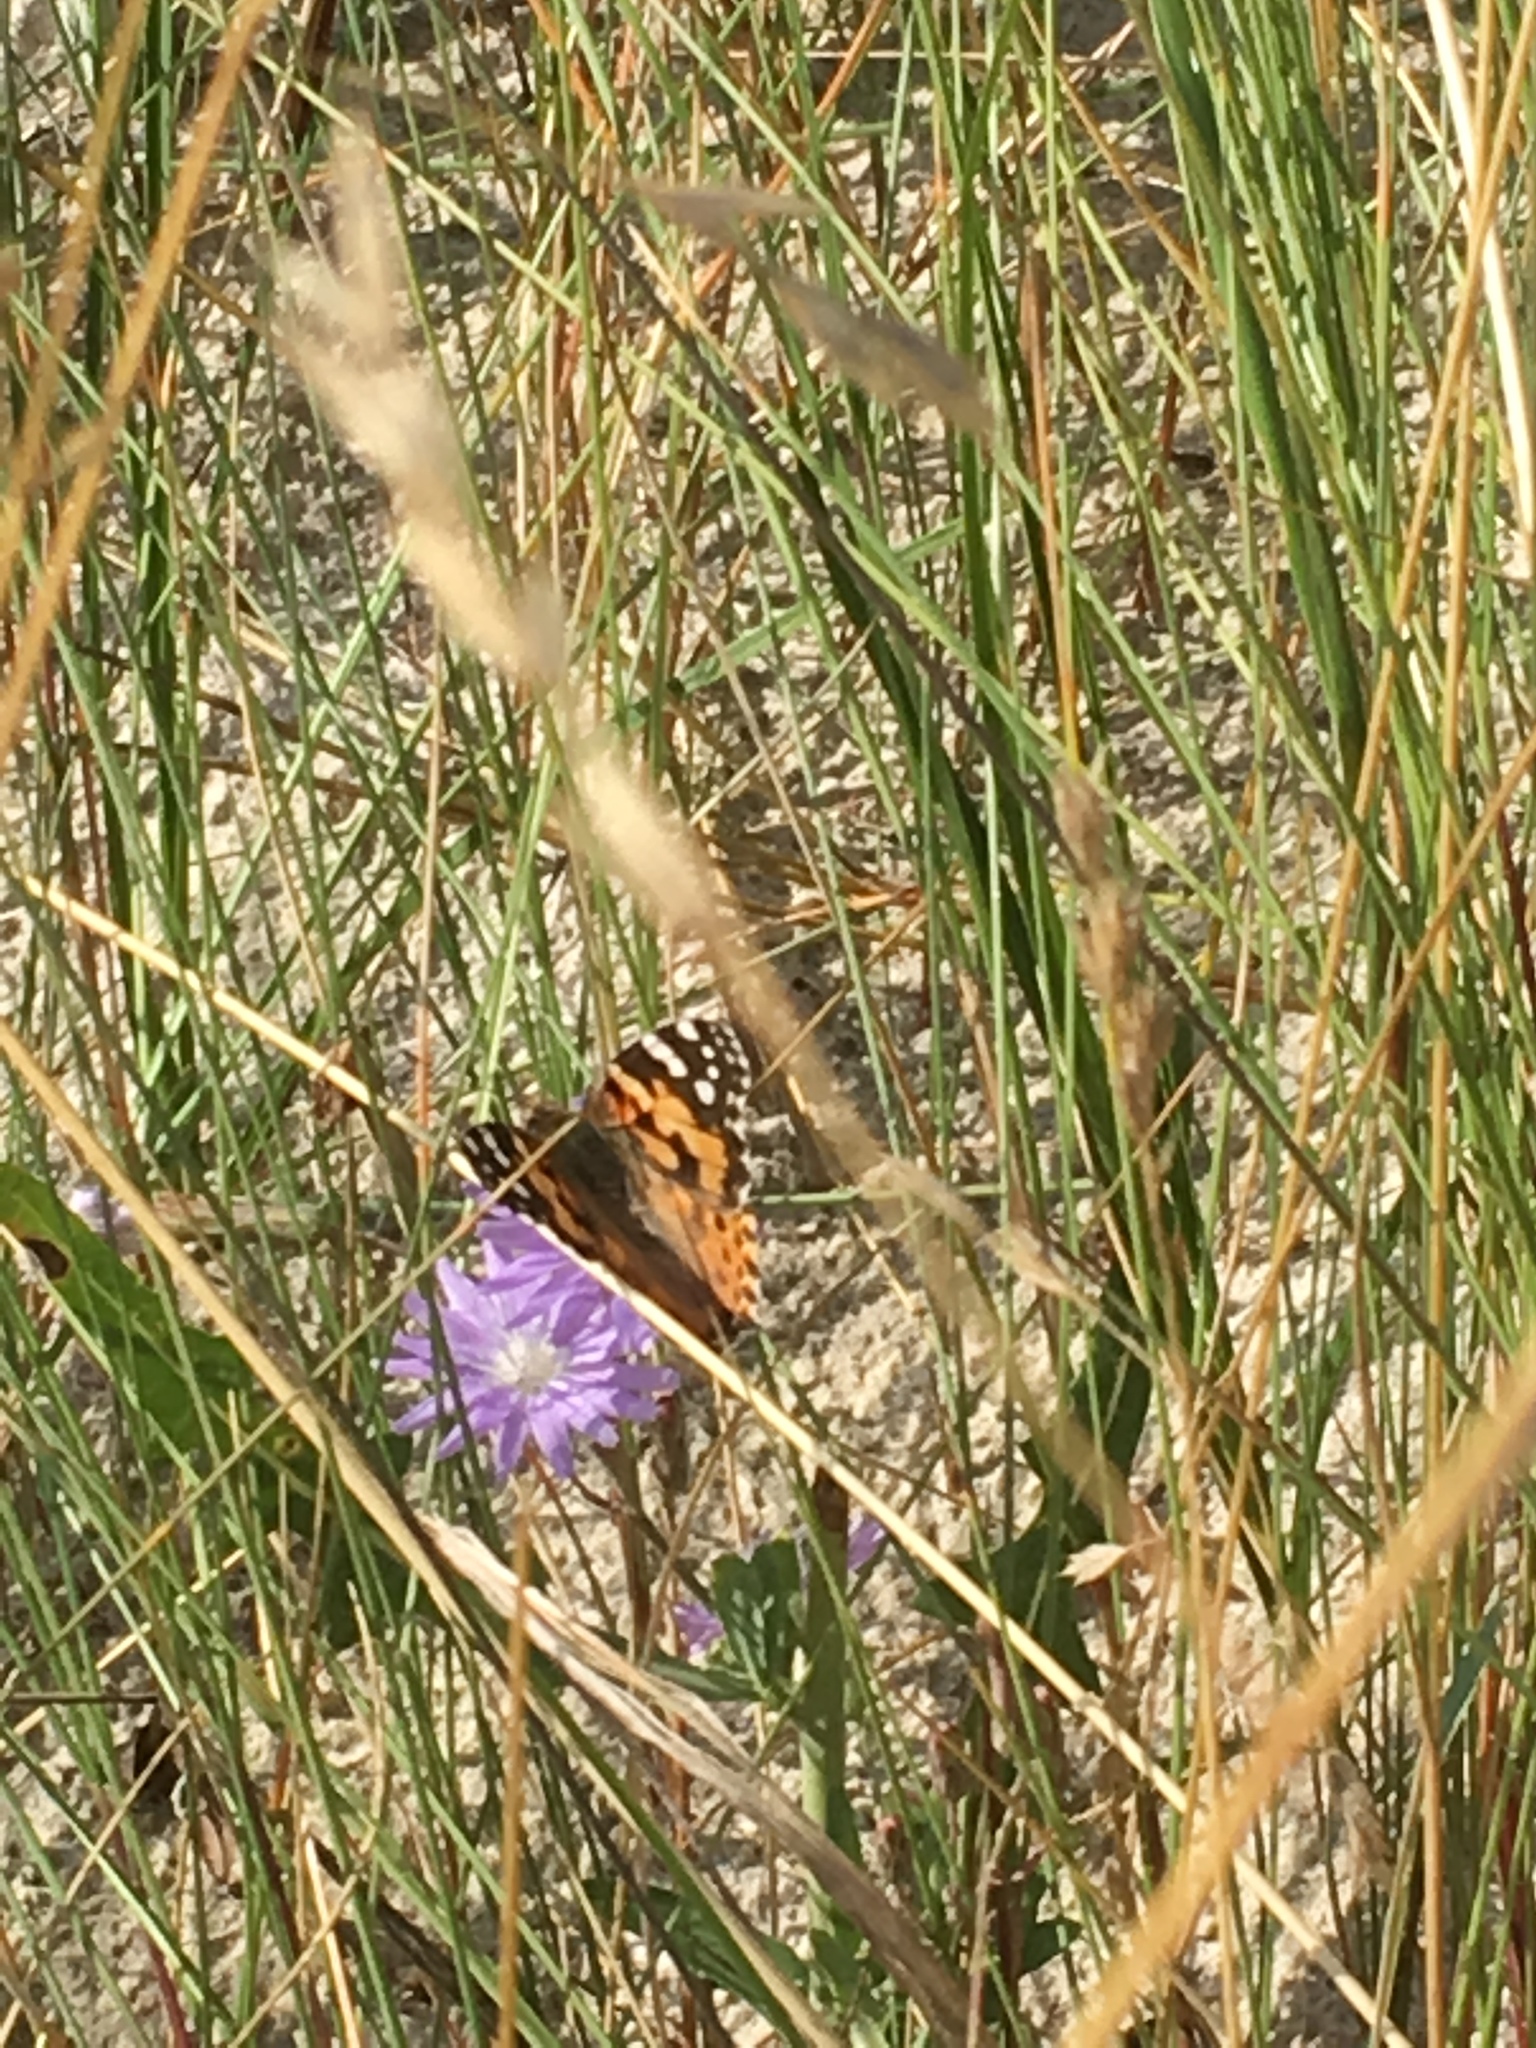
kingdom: Animalia
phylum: Arthropoda
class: Insecta
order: Lepidoptera
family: Nymphalidae
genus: Vanessa
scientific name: Vanessa cardui
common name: Painted lady
